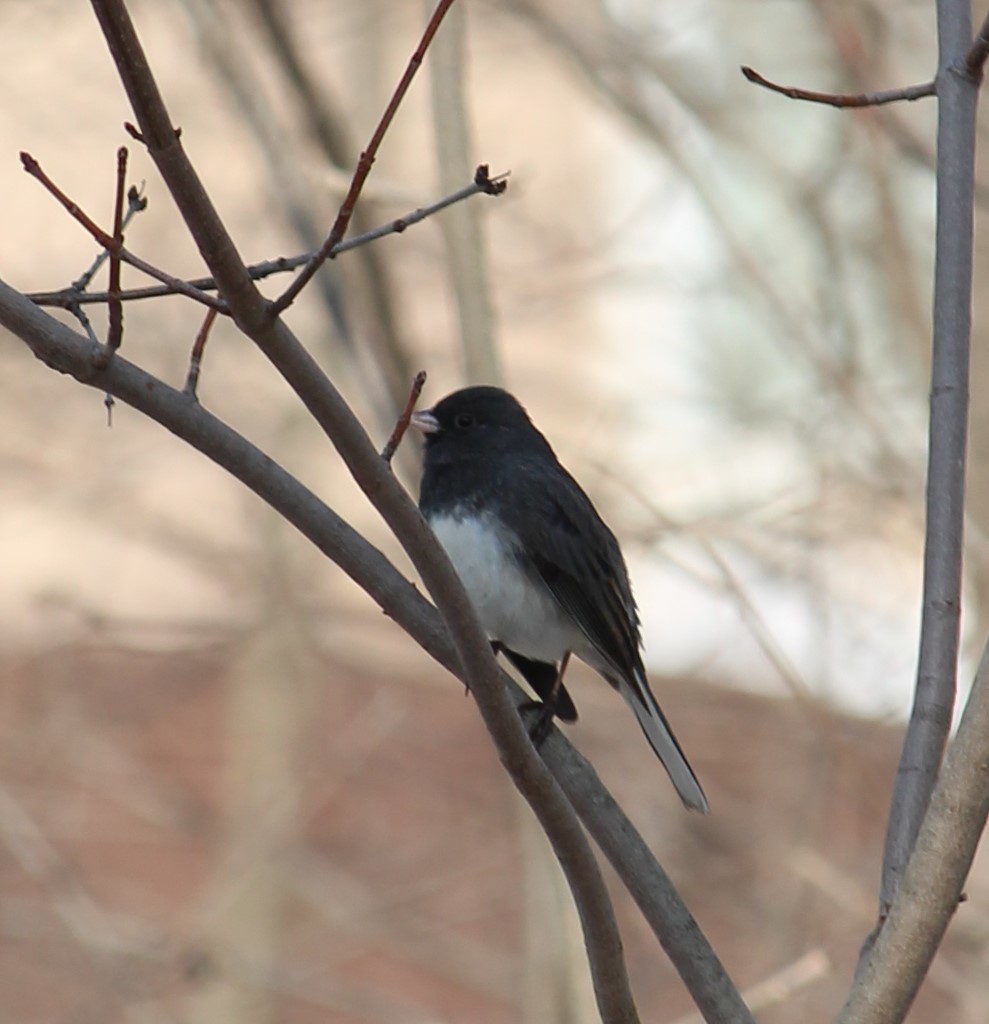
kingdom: Animalia
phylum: Chordata
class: Aves
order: Passeriformes
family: Passerellidae
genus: Junco
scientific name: Junco hyemalis
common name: Dark-eyed junco
